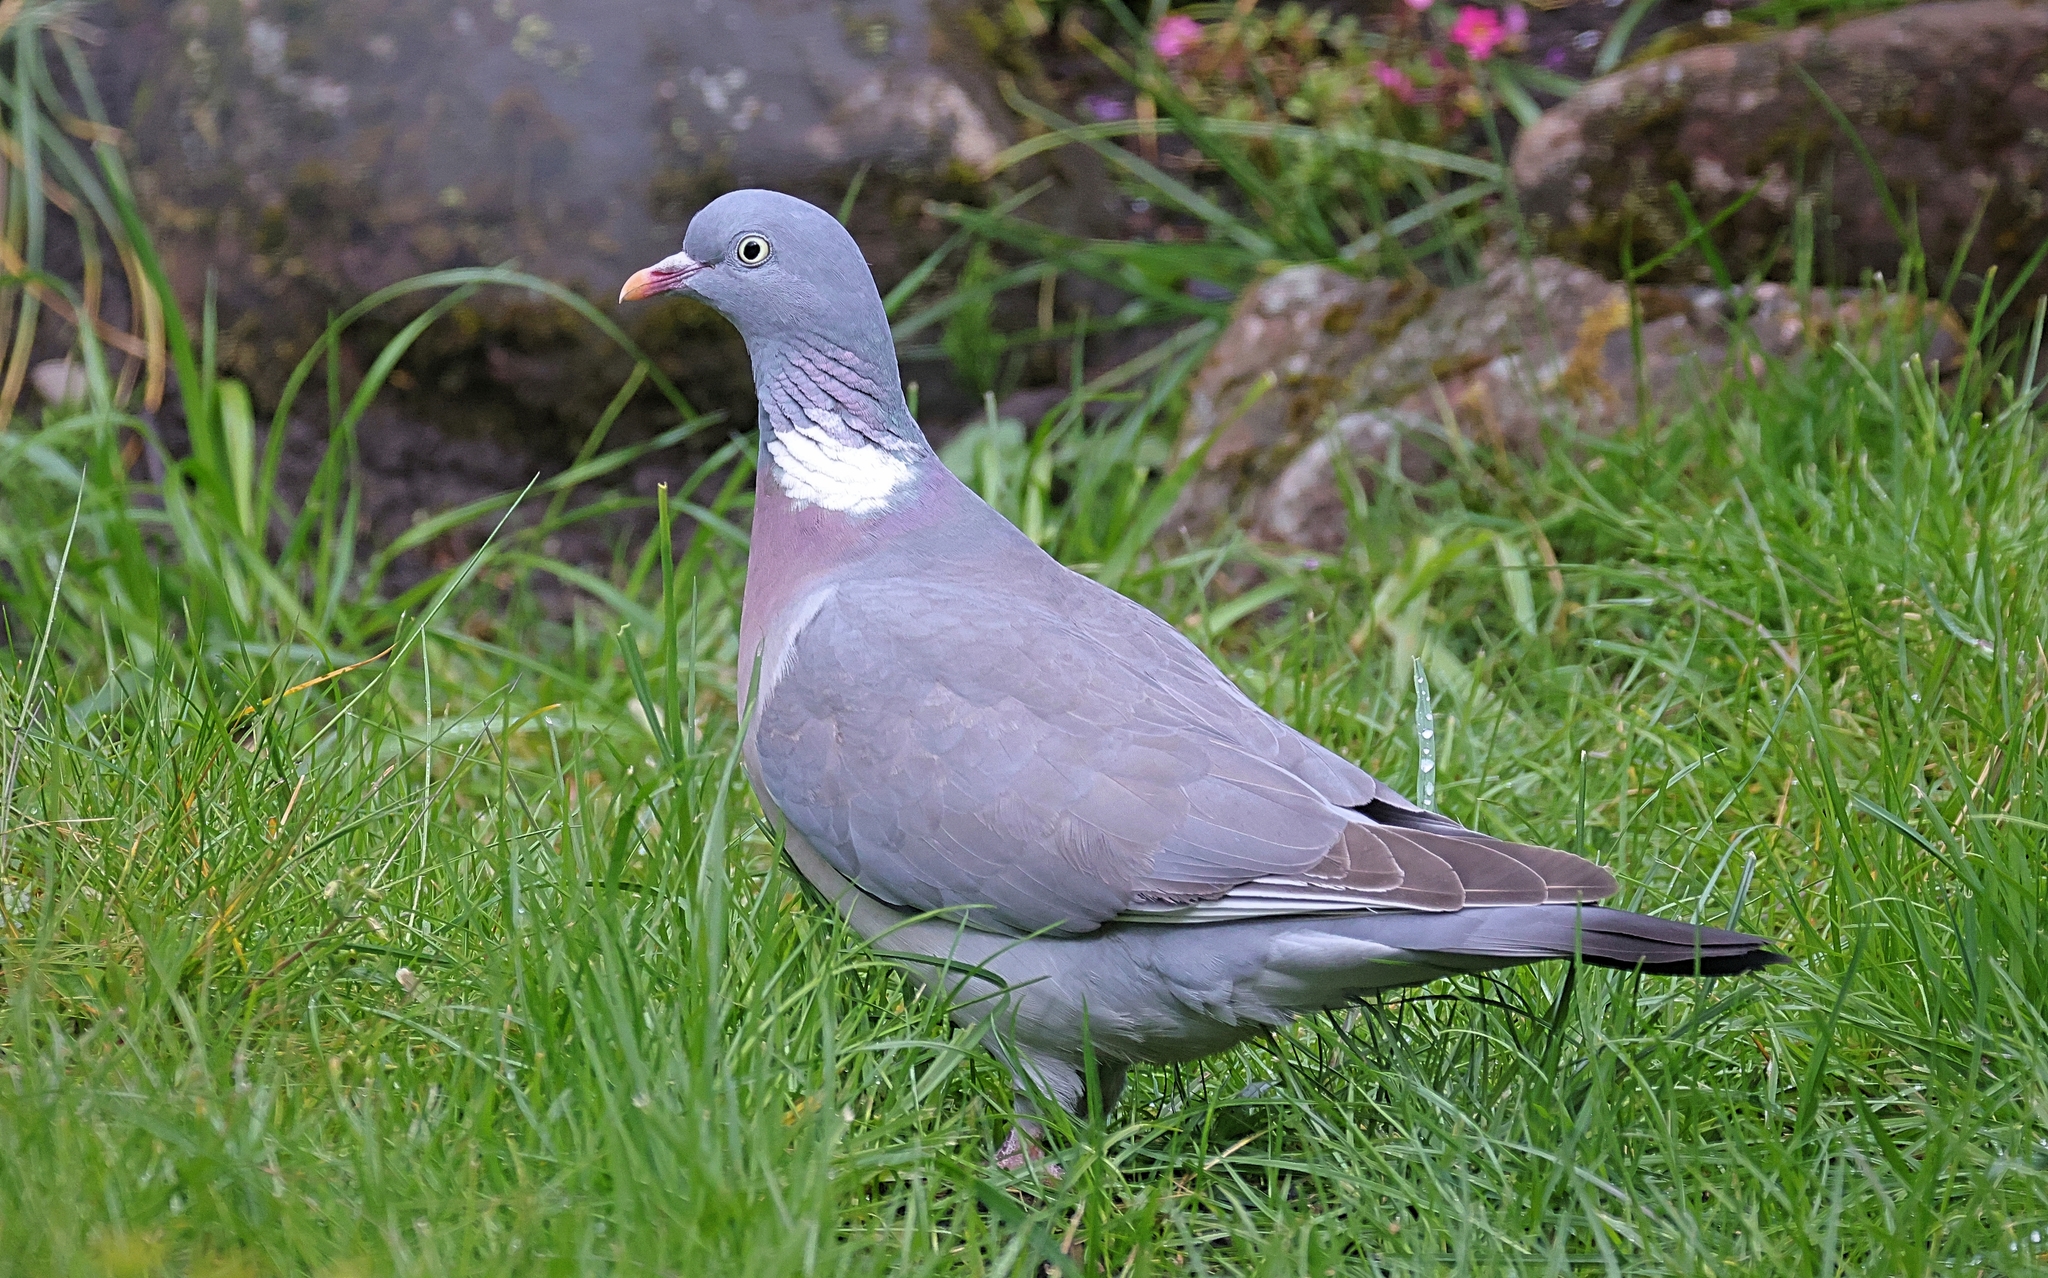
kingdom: Animalia
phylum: Chordata
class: Aves
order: Columbiformes
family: Columbidae
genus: Columba
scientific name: Columba palumbus
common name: Common wood pigeon
